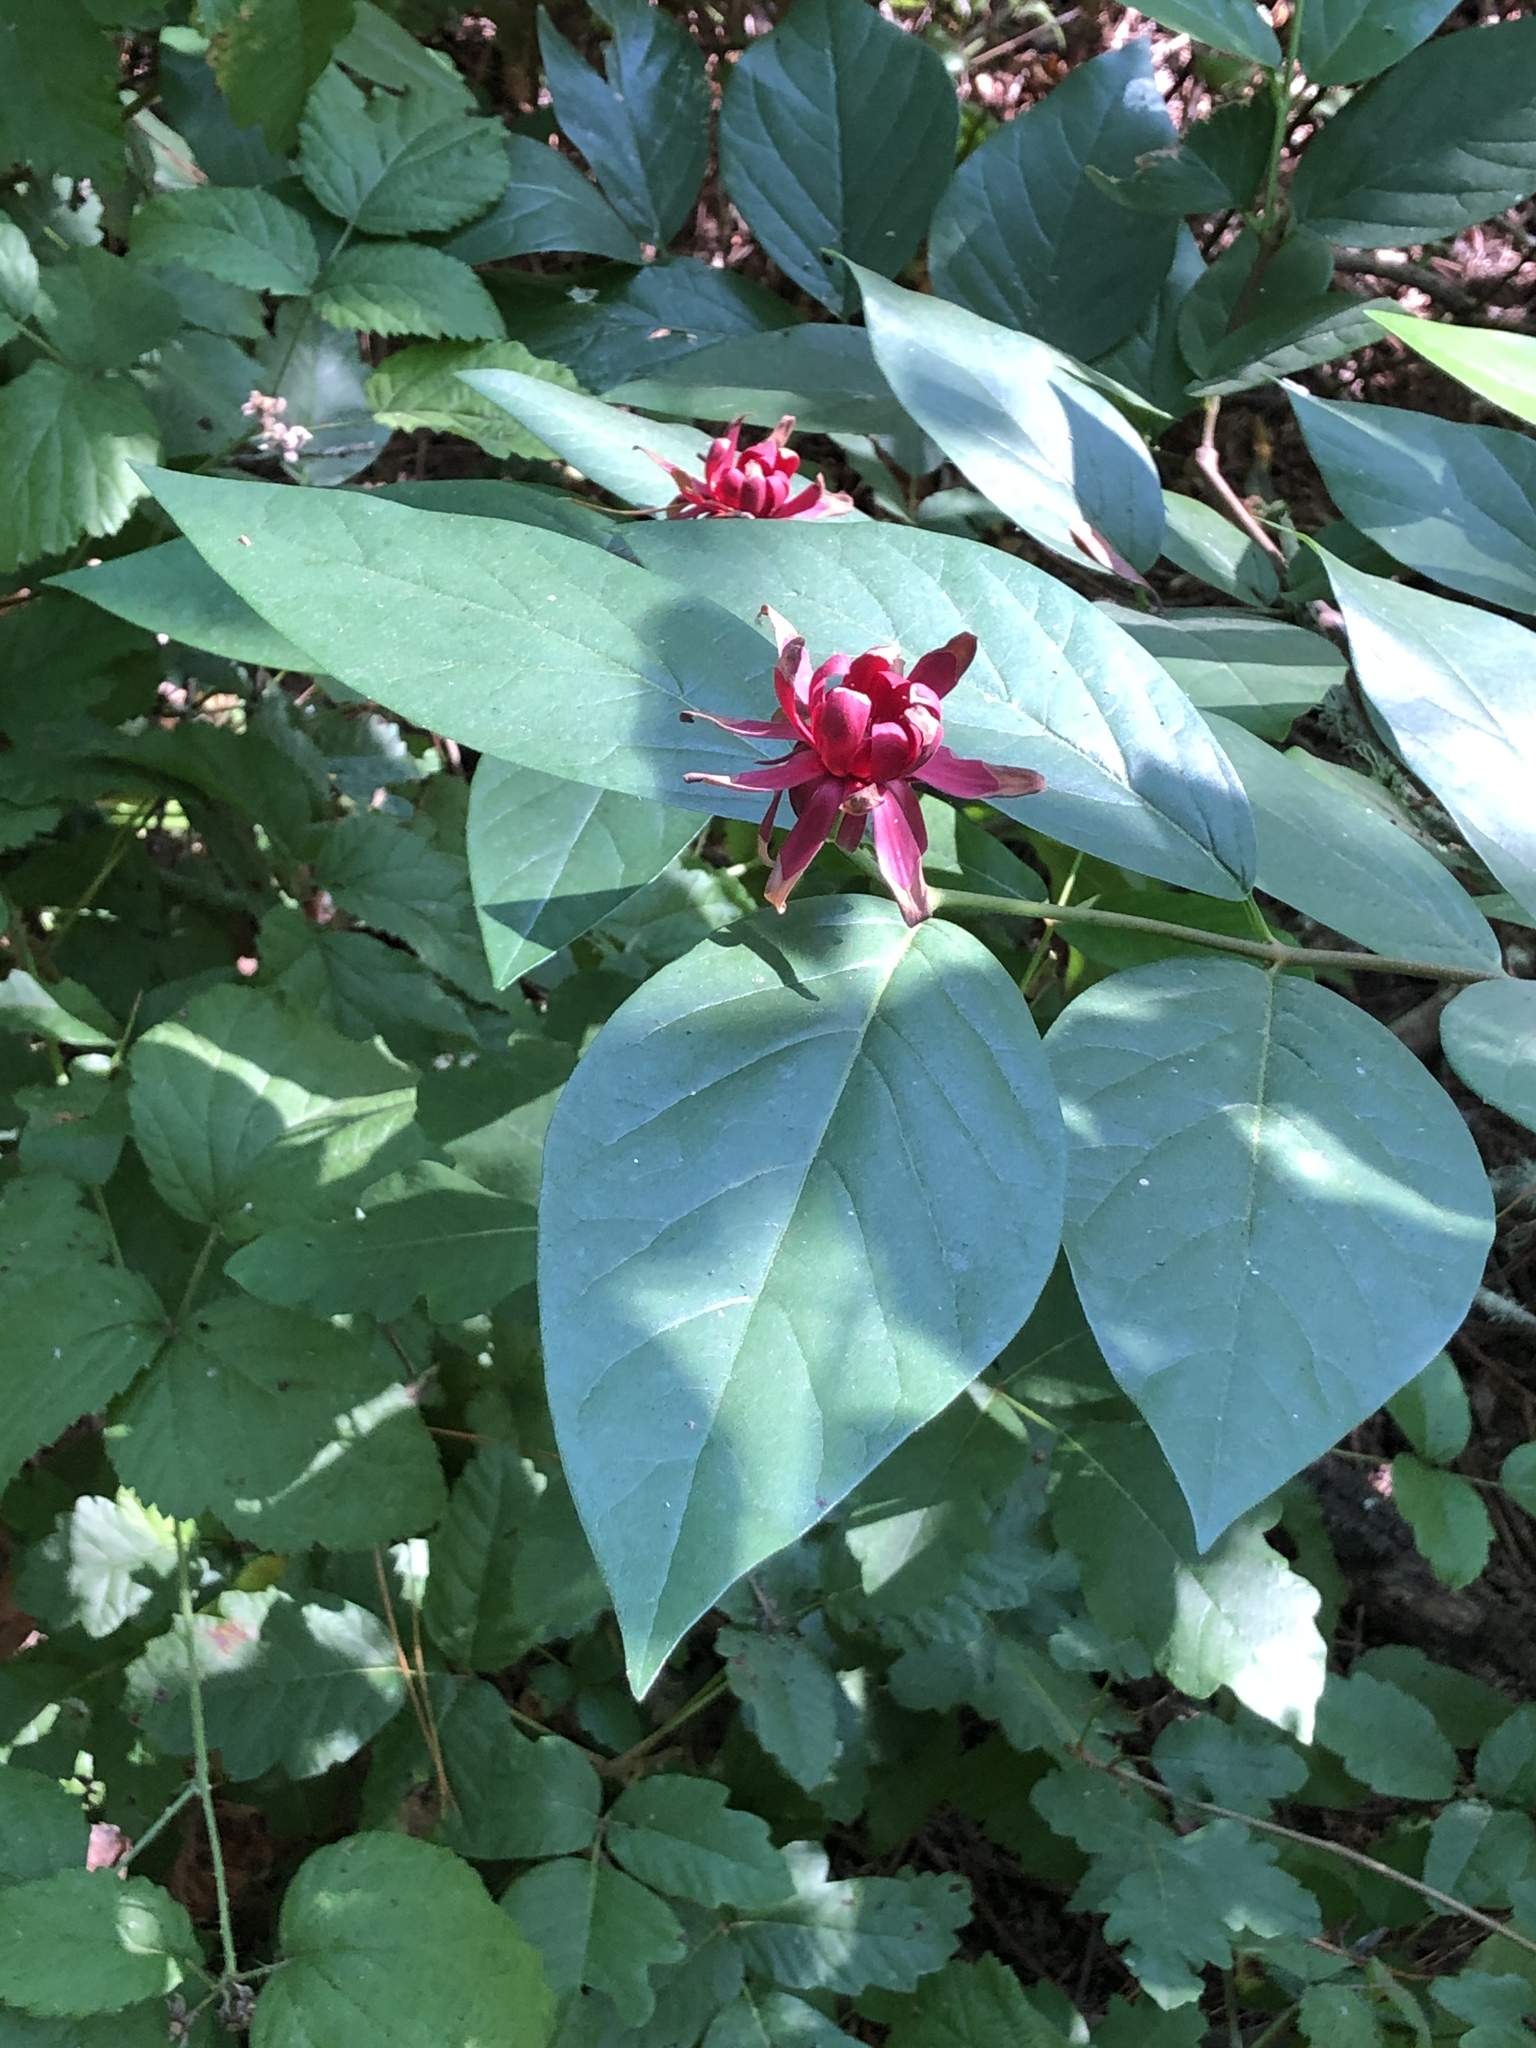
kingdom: Plantae
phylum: Tracheophyta
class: Magnoliopsida
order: Laurales
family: Calycanthaceae
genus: Calycanthus
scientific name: Calycanthus occidentalis
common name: California spicebush
